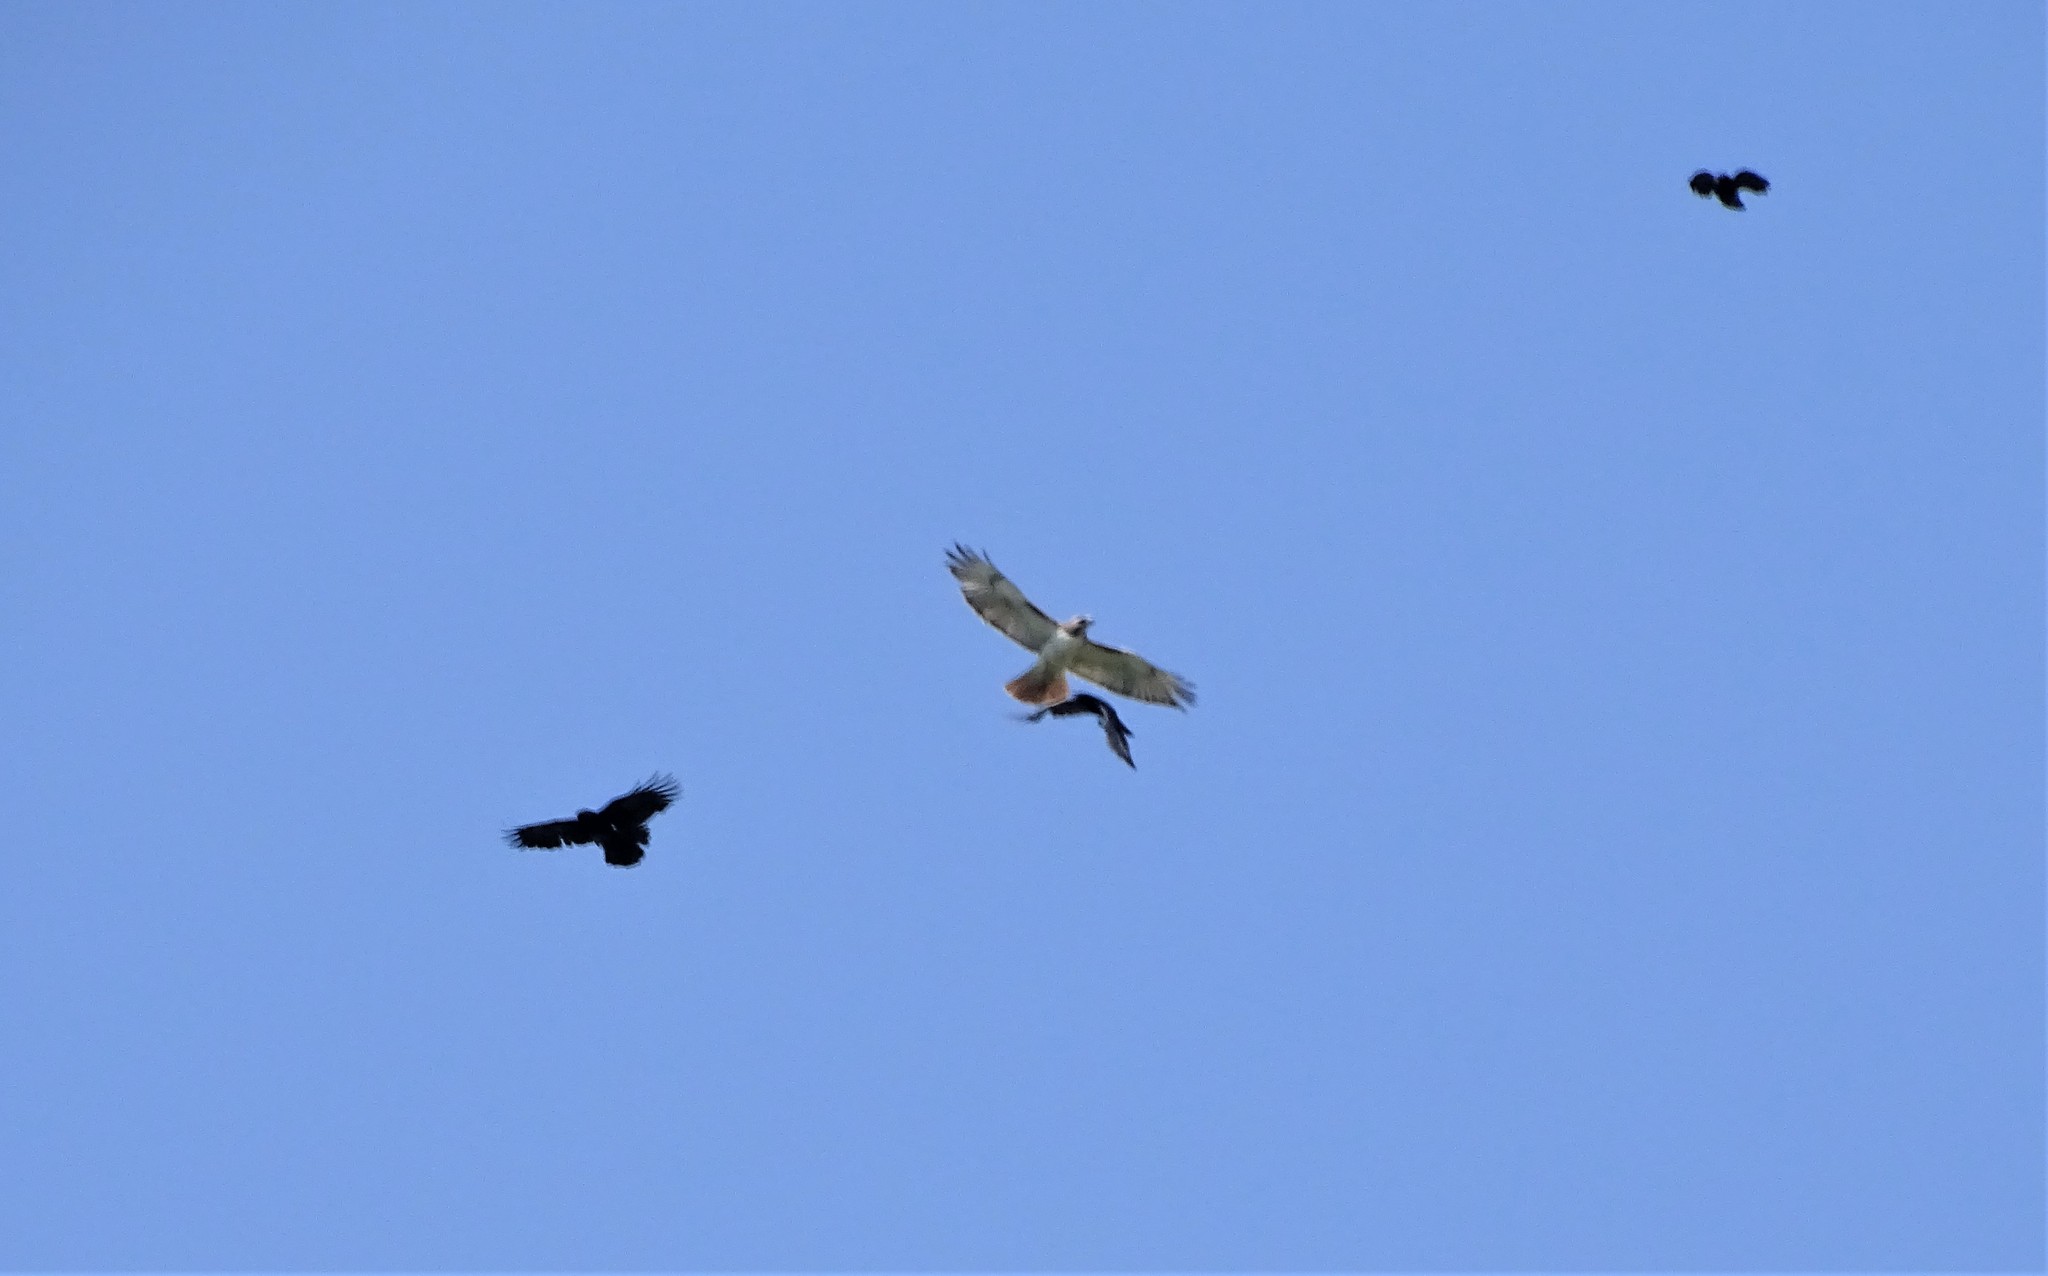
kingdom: Animalia
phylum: Chordata
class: Aves
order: Accipitriformes
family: Accipitridae
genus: Buteo
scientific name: Buteo jamaicensis
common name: Red-tailed hawk
